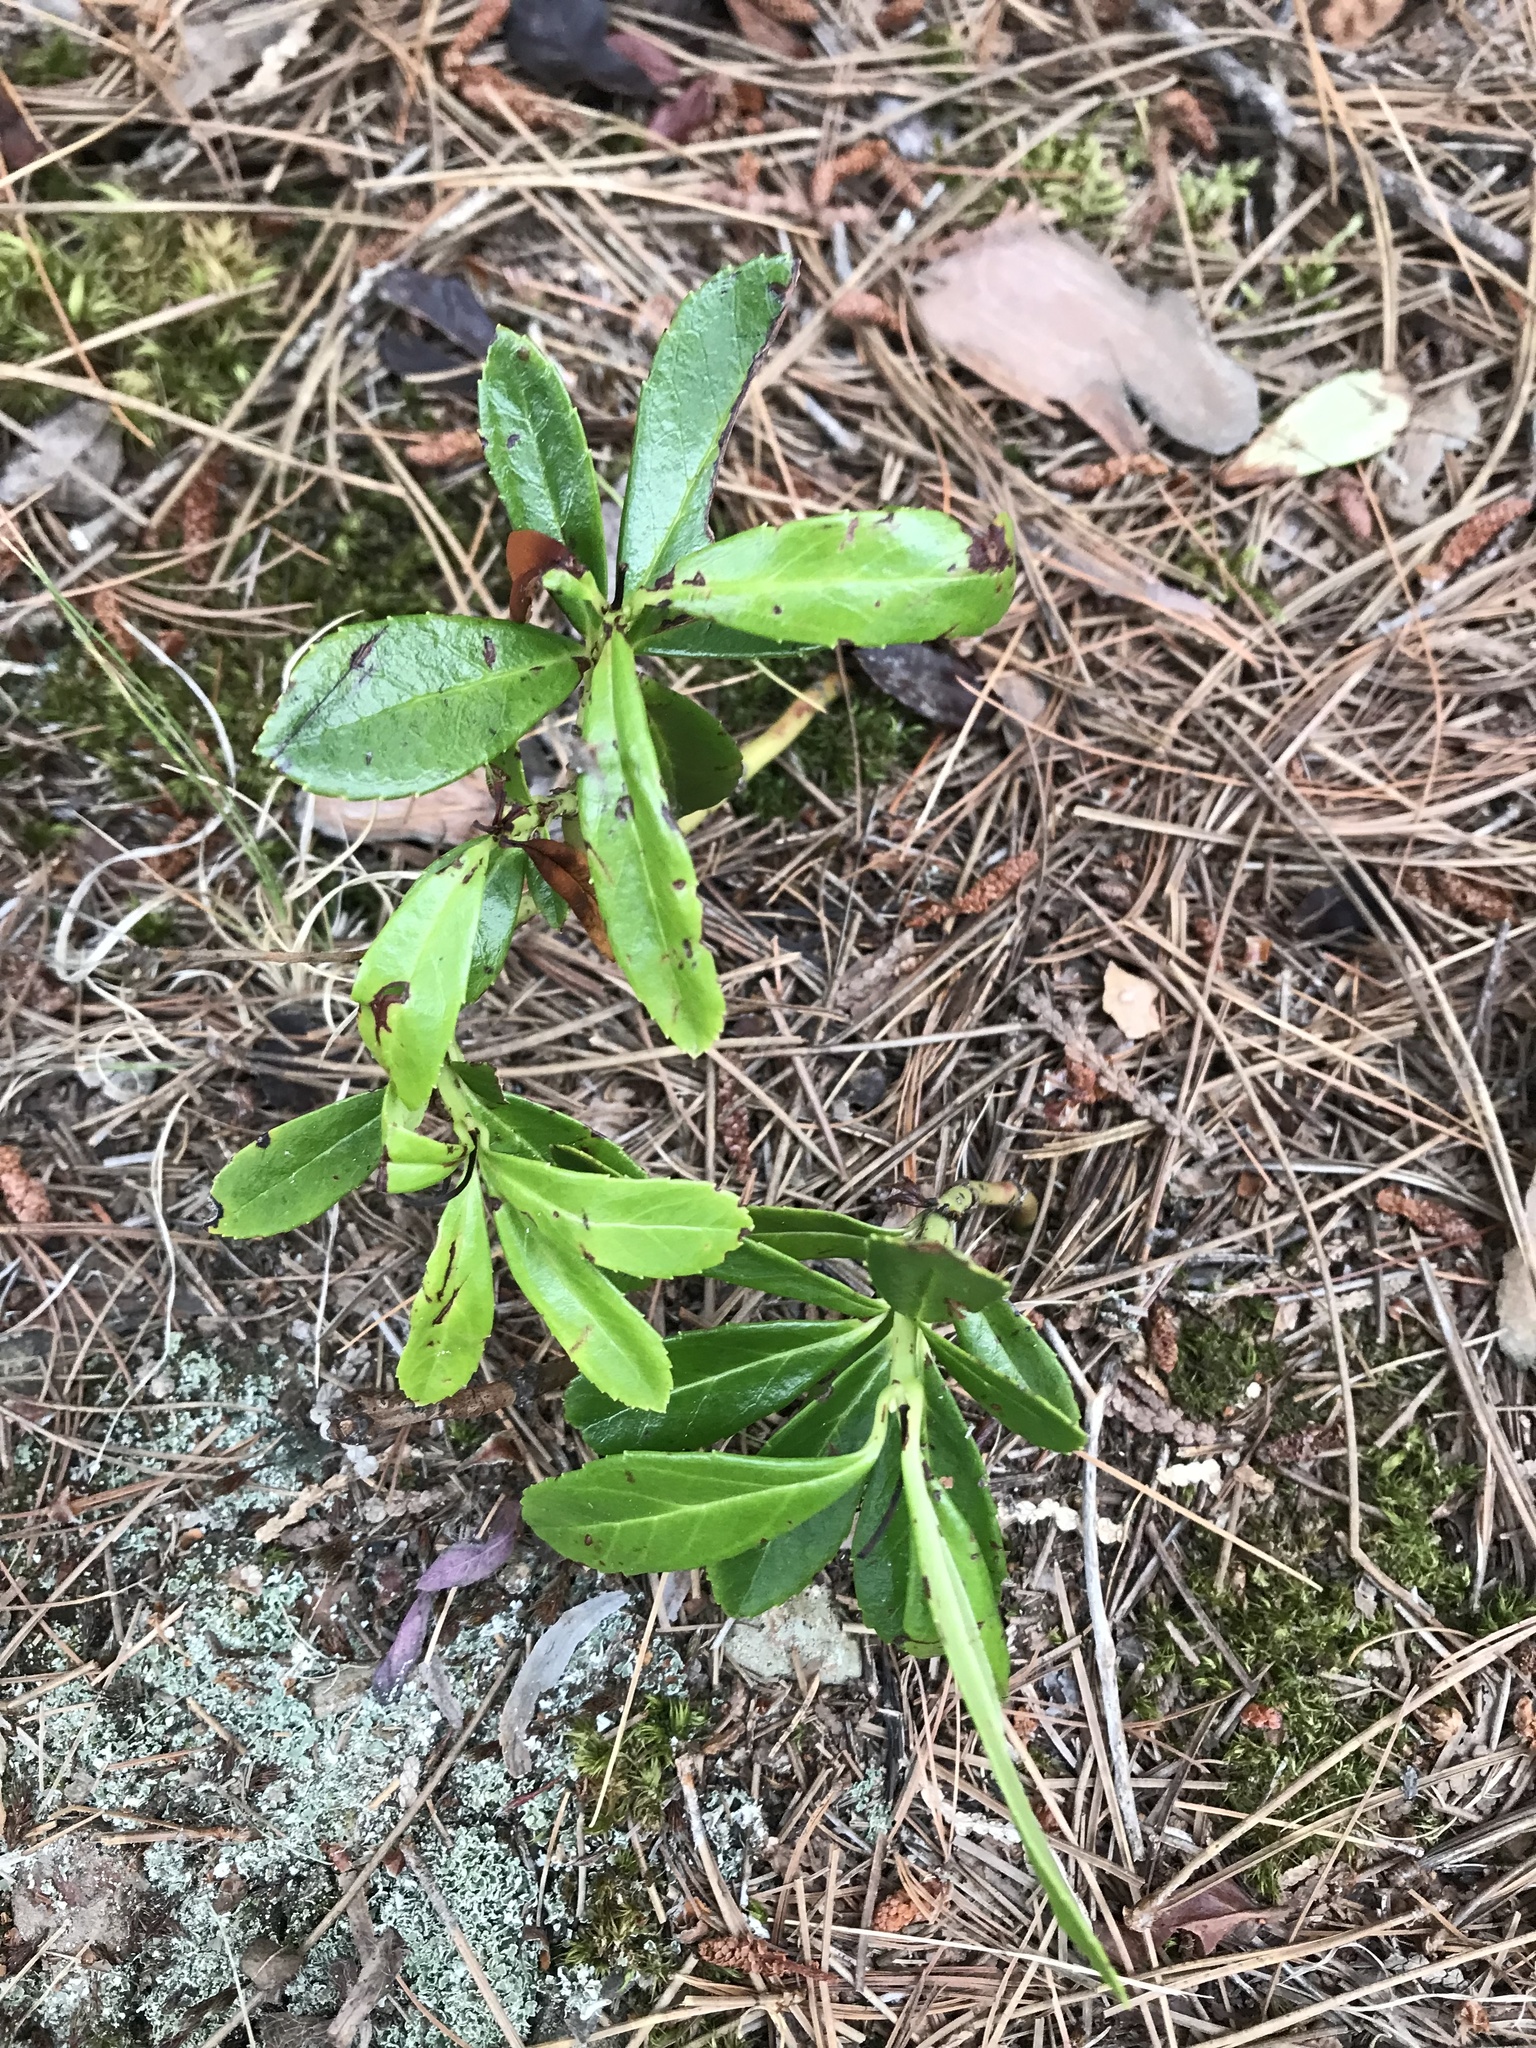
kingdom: Plantae
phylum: Tracheophyta
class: Magnoliopsida
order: Ericales
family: Ericaceae
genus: Chimaphila
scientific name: Chimaphila umbellata
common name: Pipsissewa
